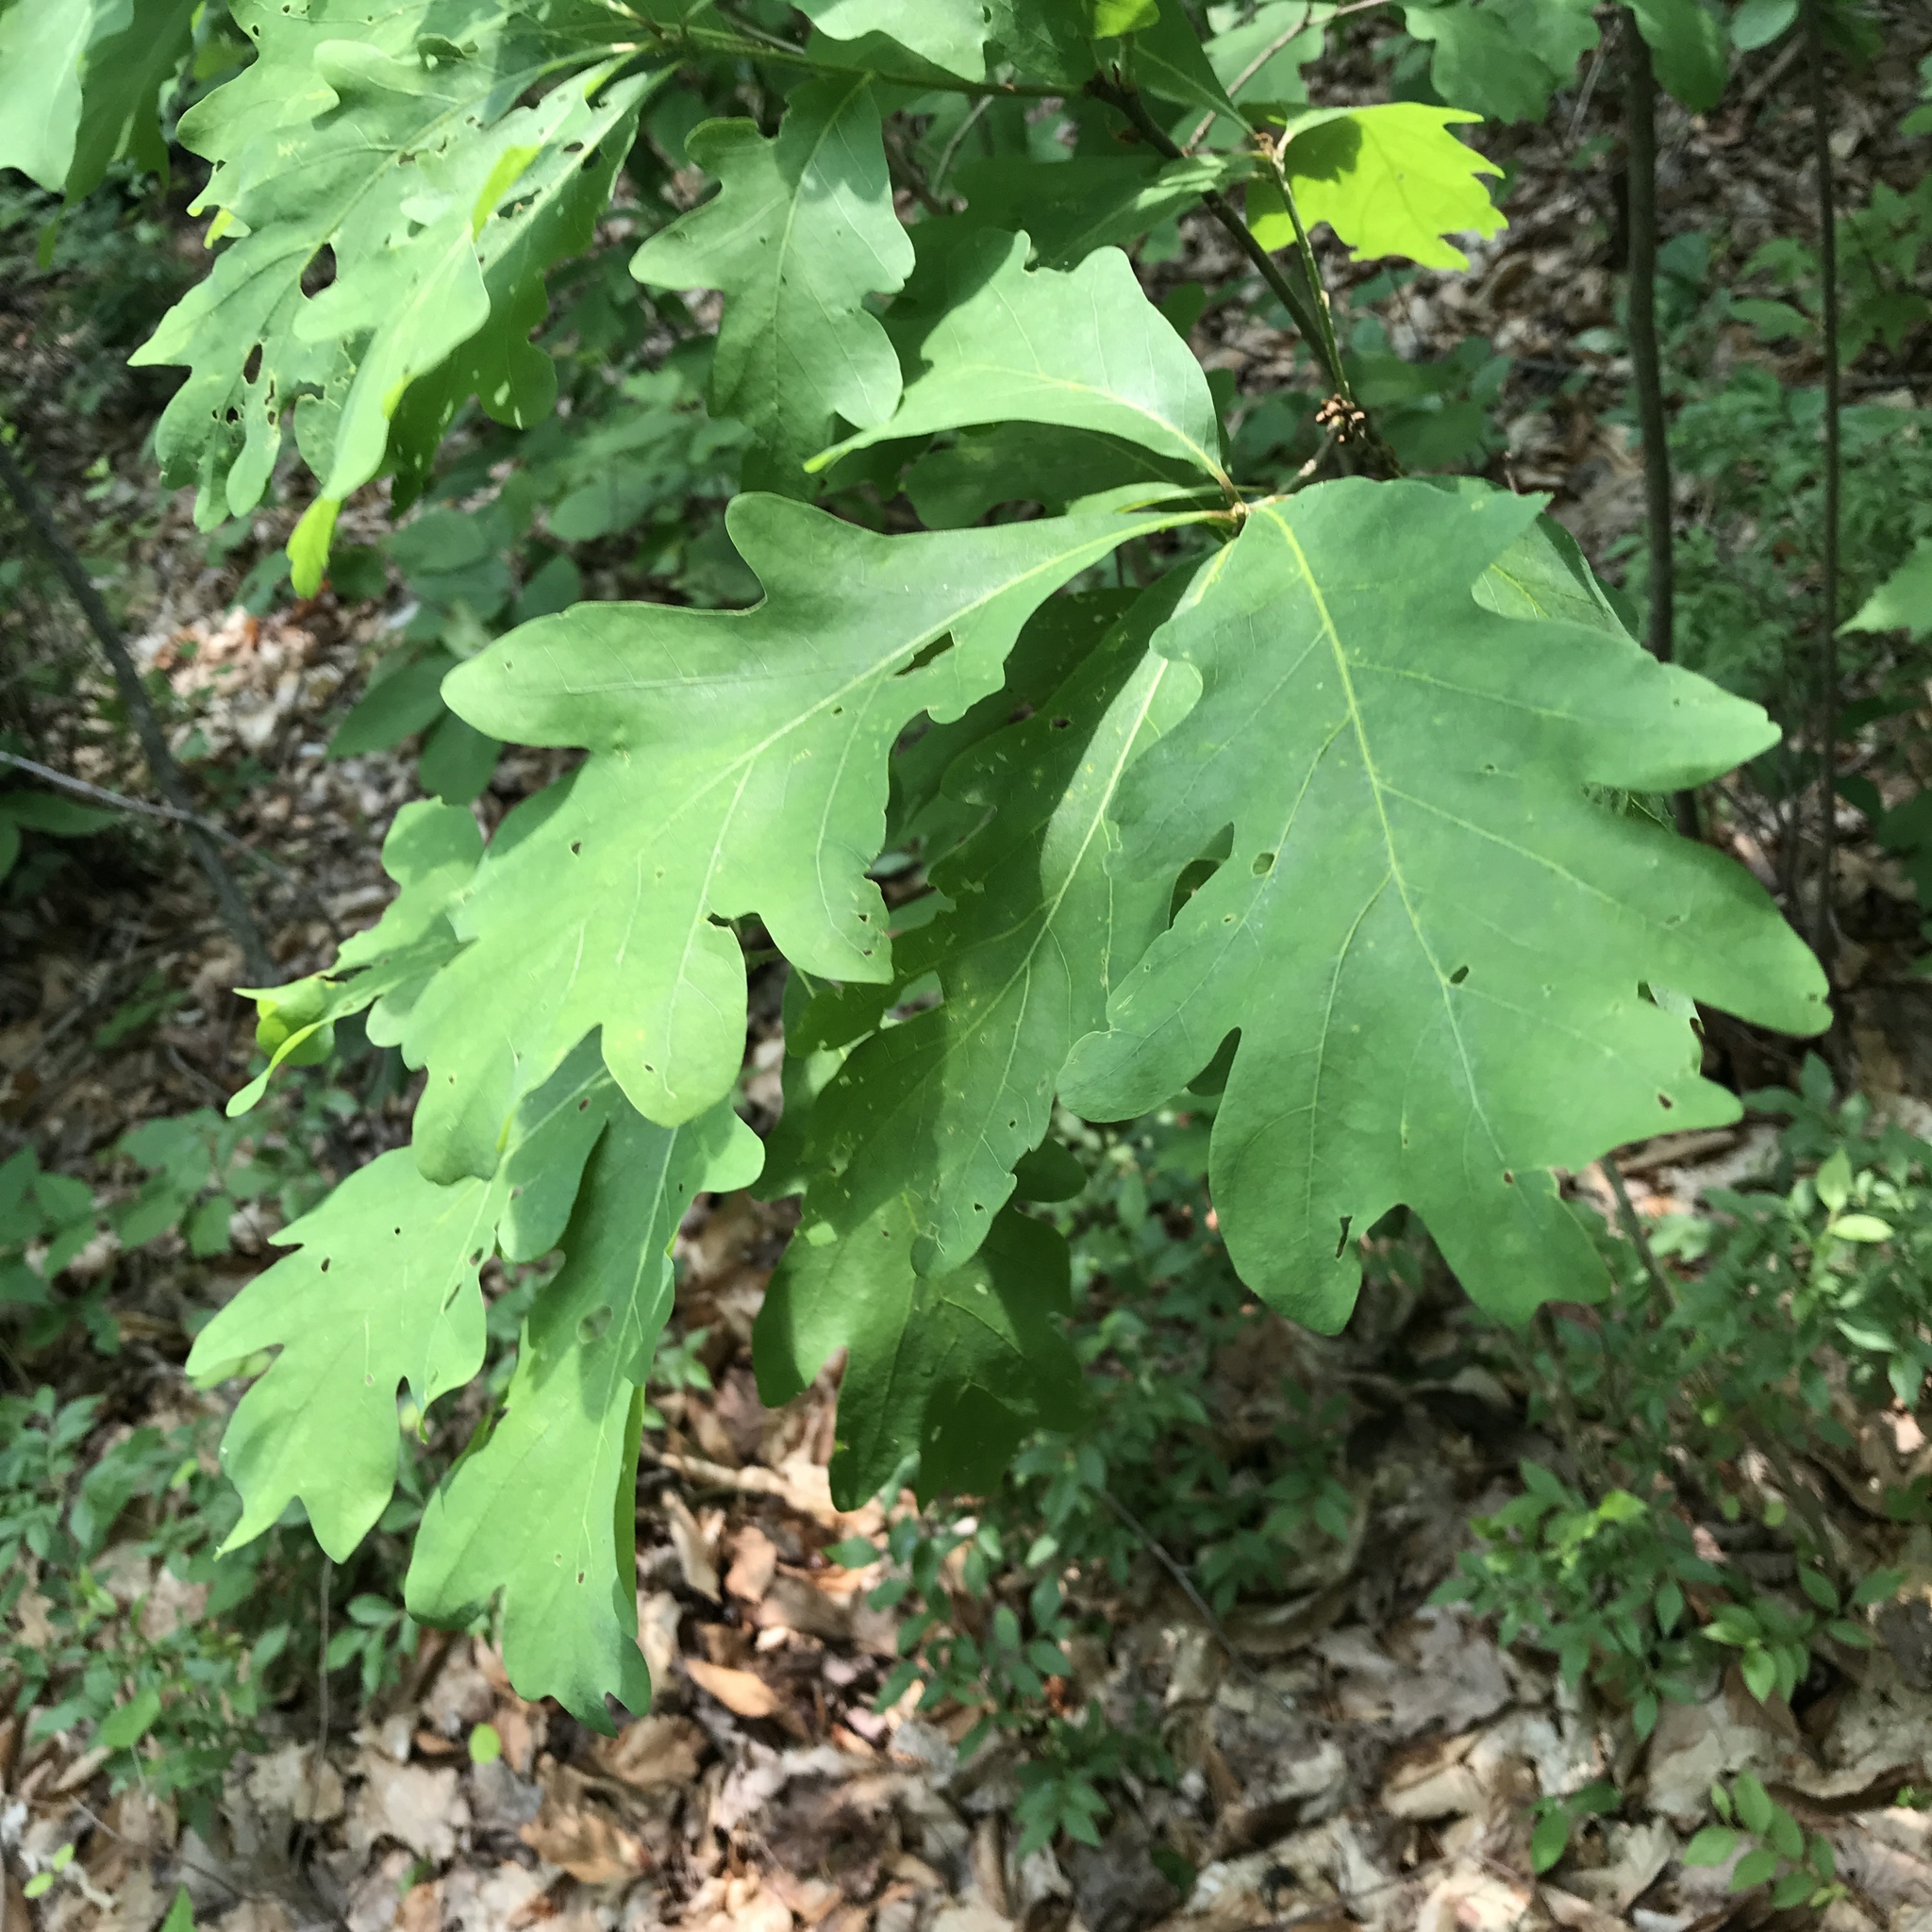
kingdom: Plantae
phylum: Tracheophyta
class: Magnoliopsida
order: Fagales
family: Fagaceae
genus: Quercus
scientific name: Quercus alba
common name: White oak
